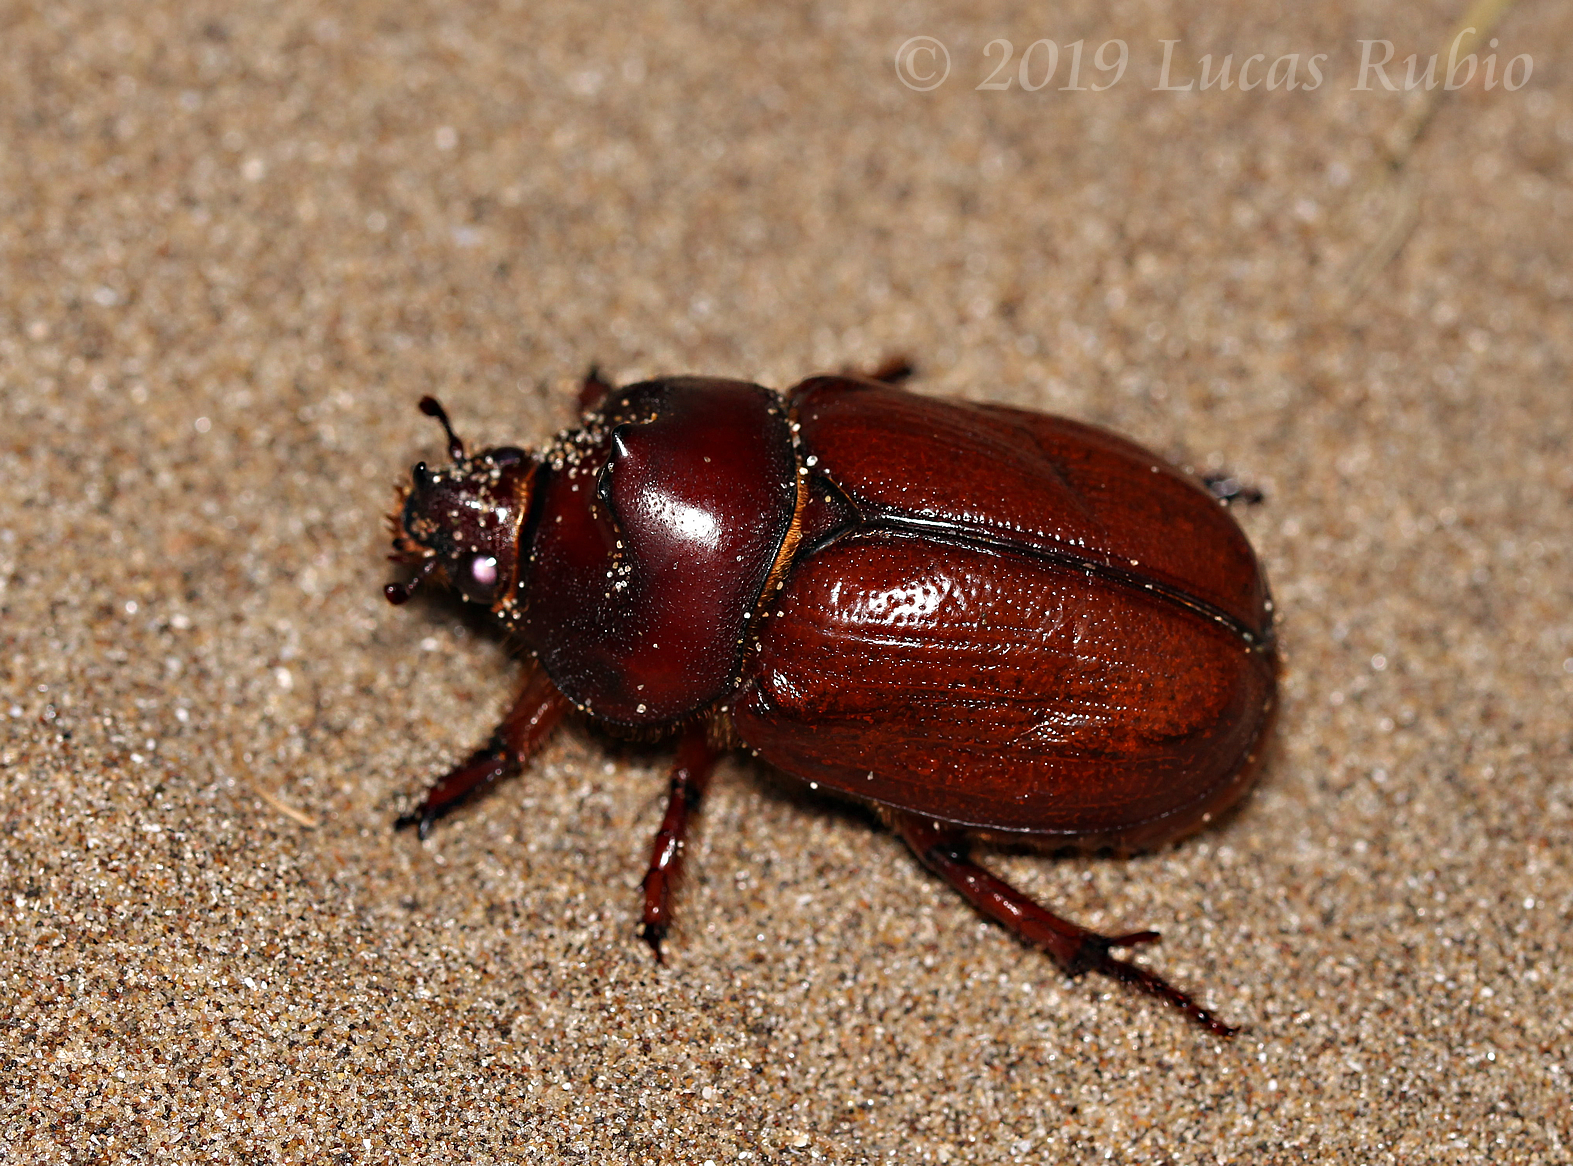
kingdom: Animalia
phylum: Arthropoda
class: Insecta
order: Coleoptera
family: Scarabaeidae
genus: Thronistes
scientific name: Thronistes rouxi
